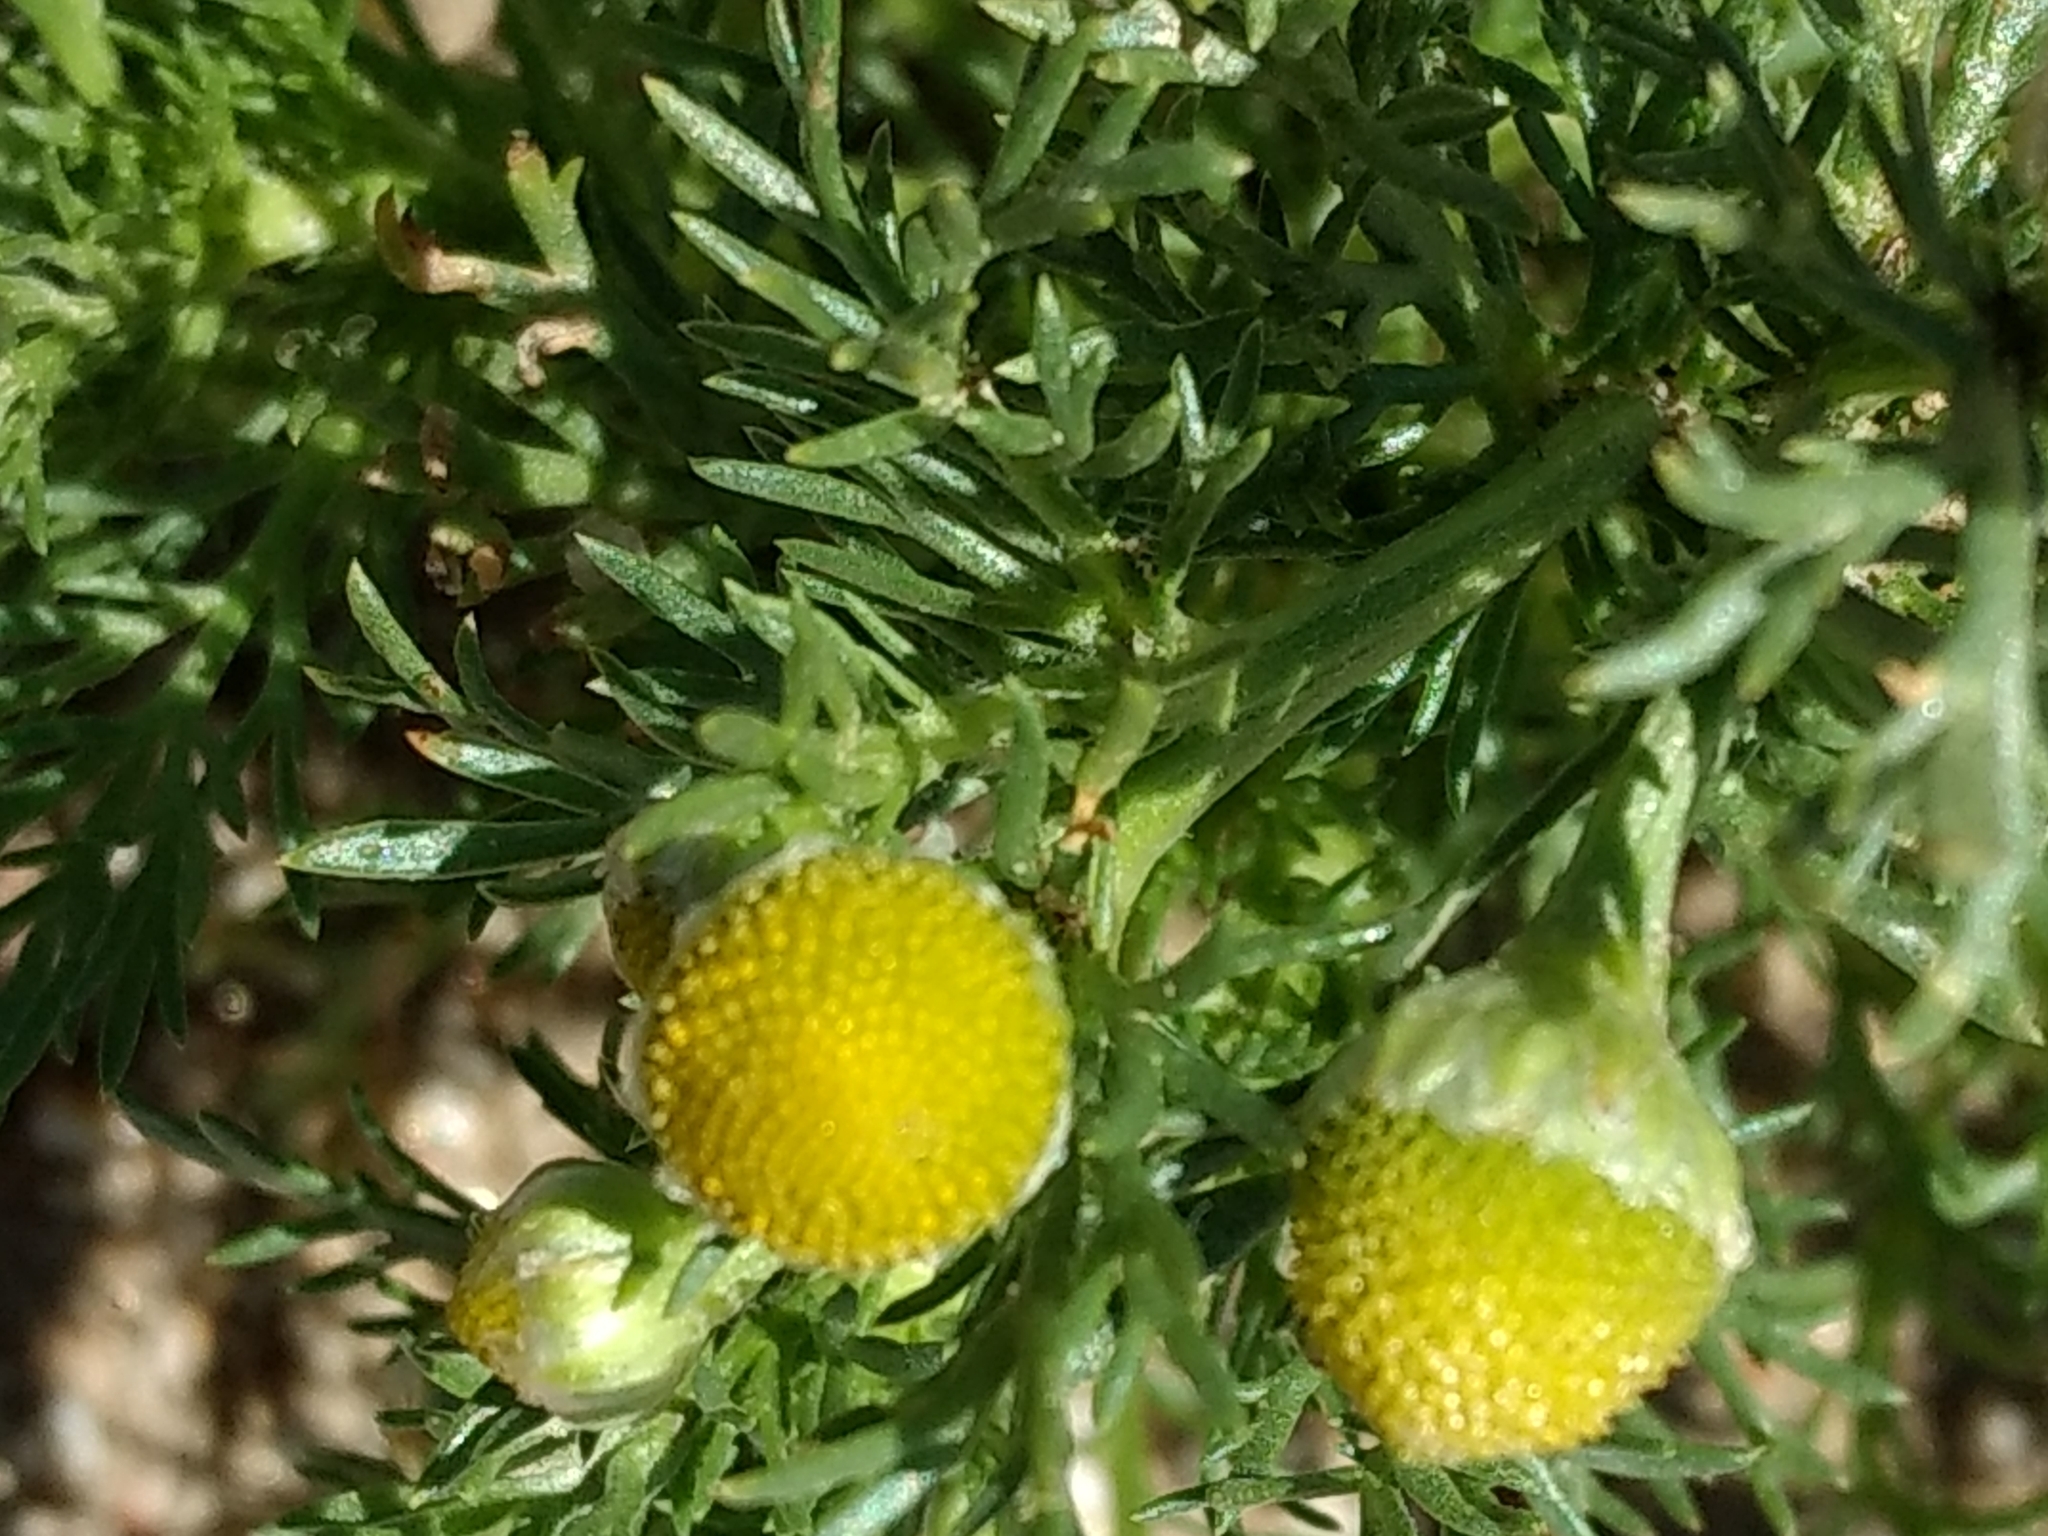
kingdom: Plantae
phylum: Tracheophyta
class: Magnoliopsida
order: Asterales
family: Asteraceae
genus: Matricaria
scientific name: Matricaria discoidea
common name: Disc mayweed
